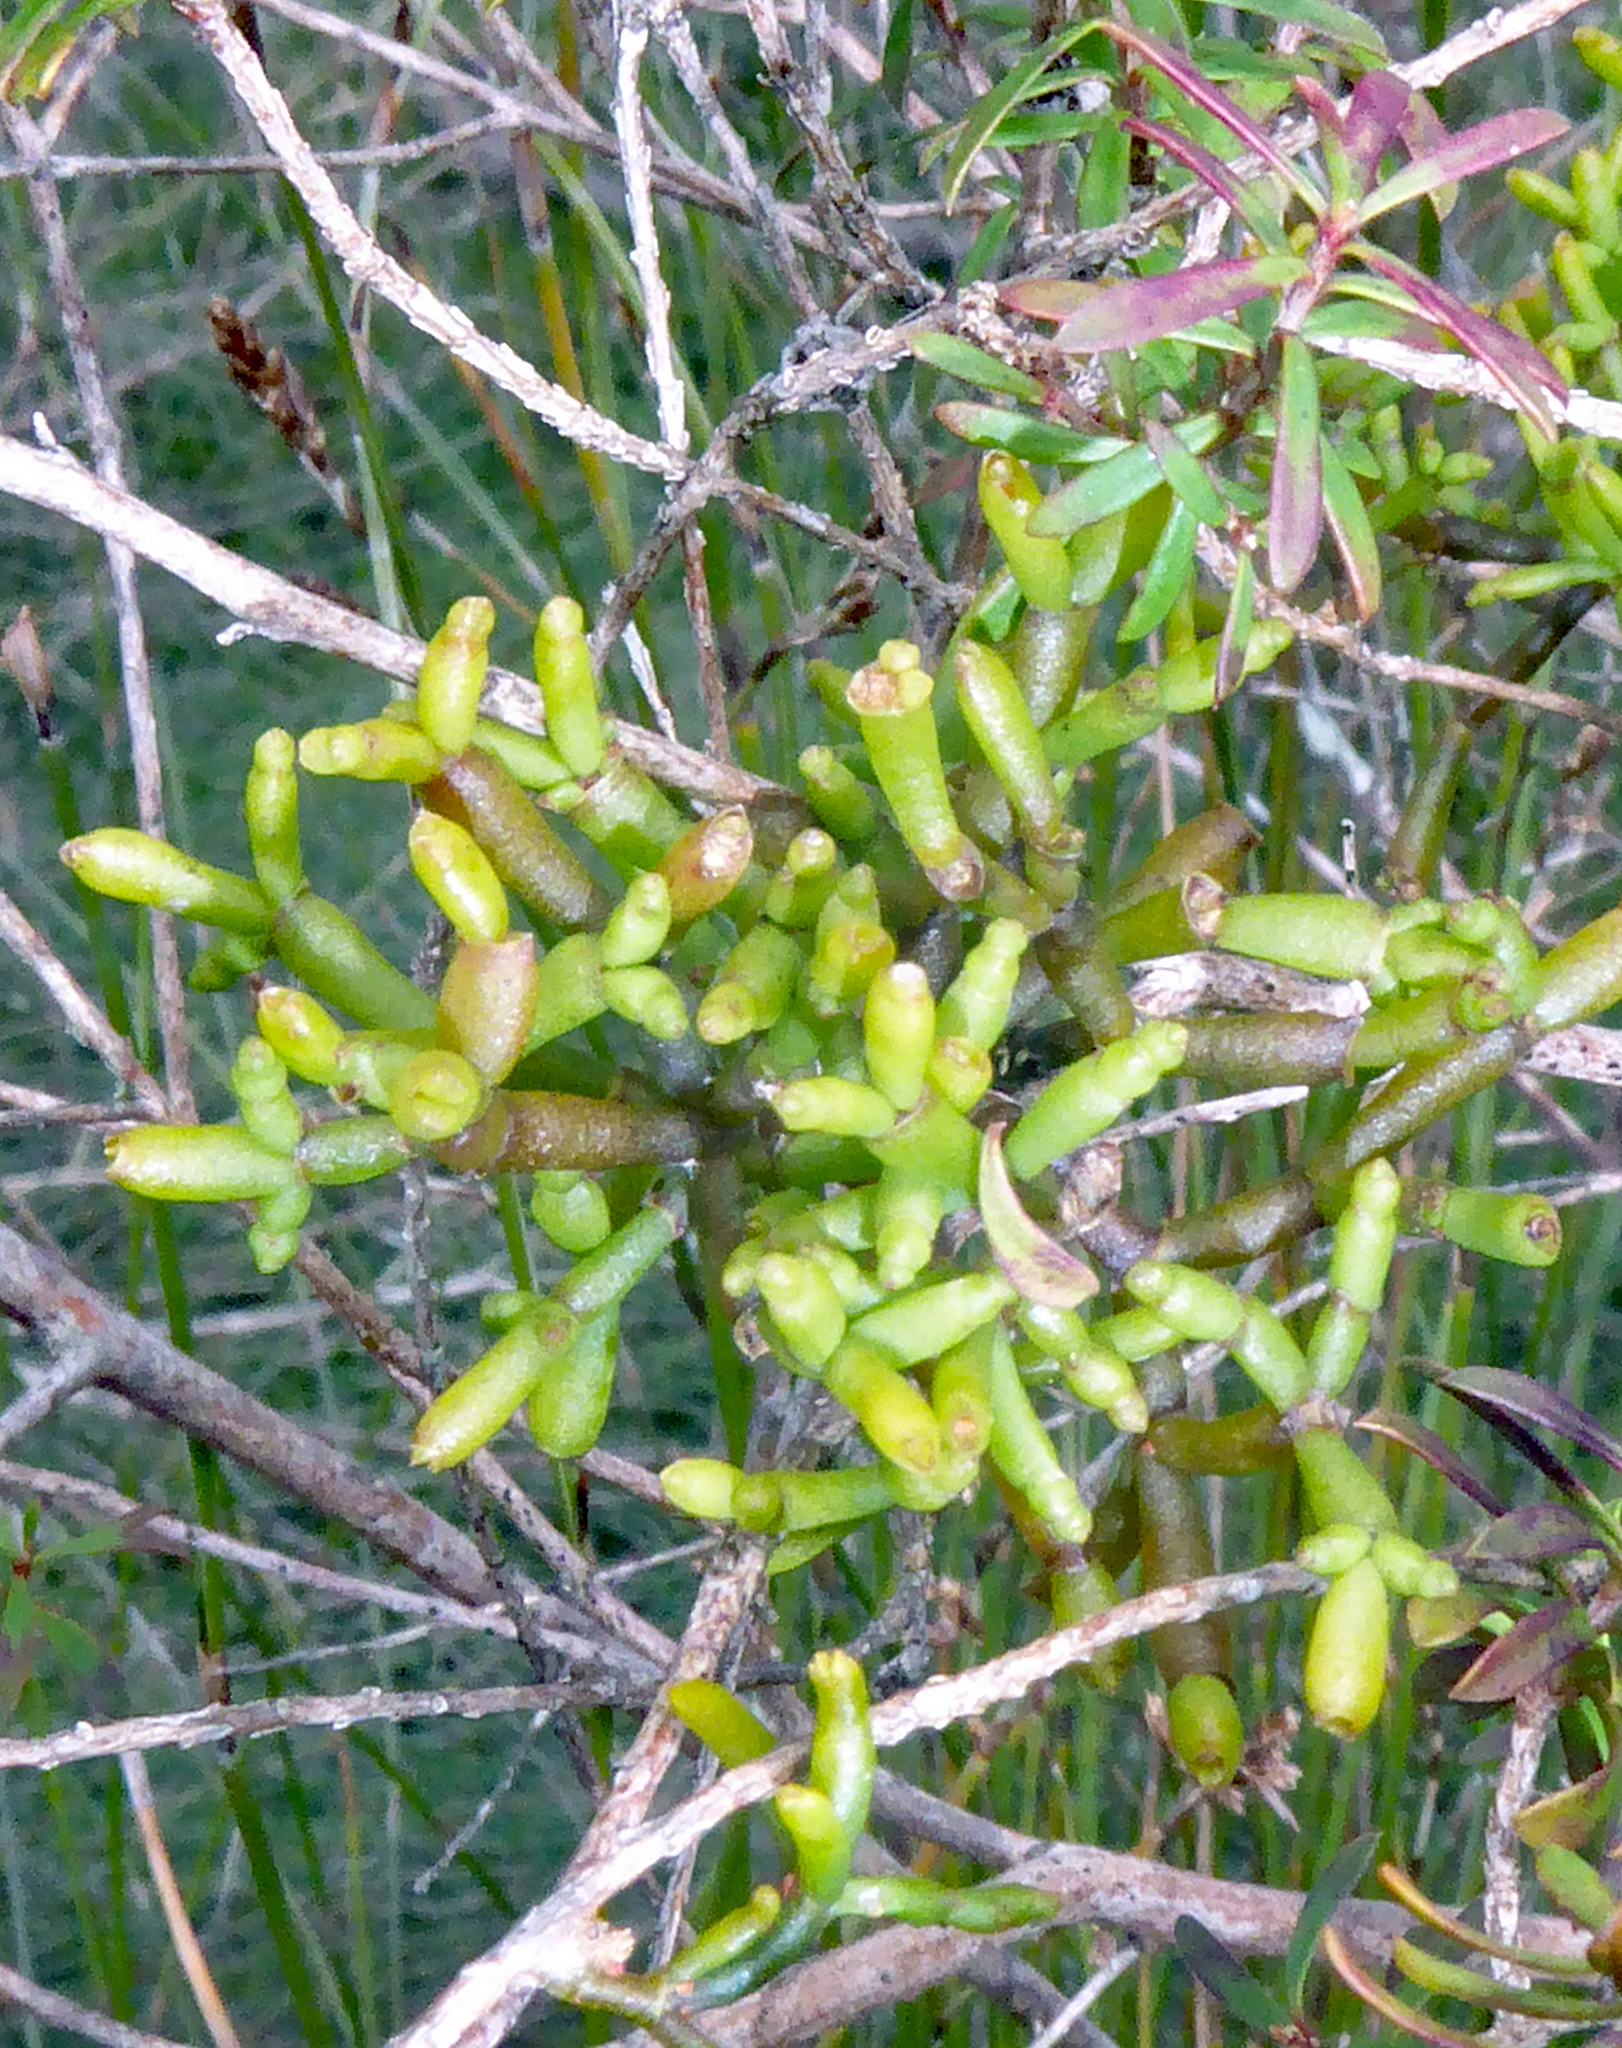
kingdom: Plantae
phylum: Tracheophyta
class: Magnoliopsida
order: Santalales
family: Viscaceae
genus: Korthalsella
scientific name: Korthalsella salicornioides
